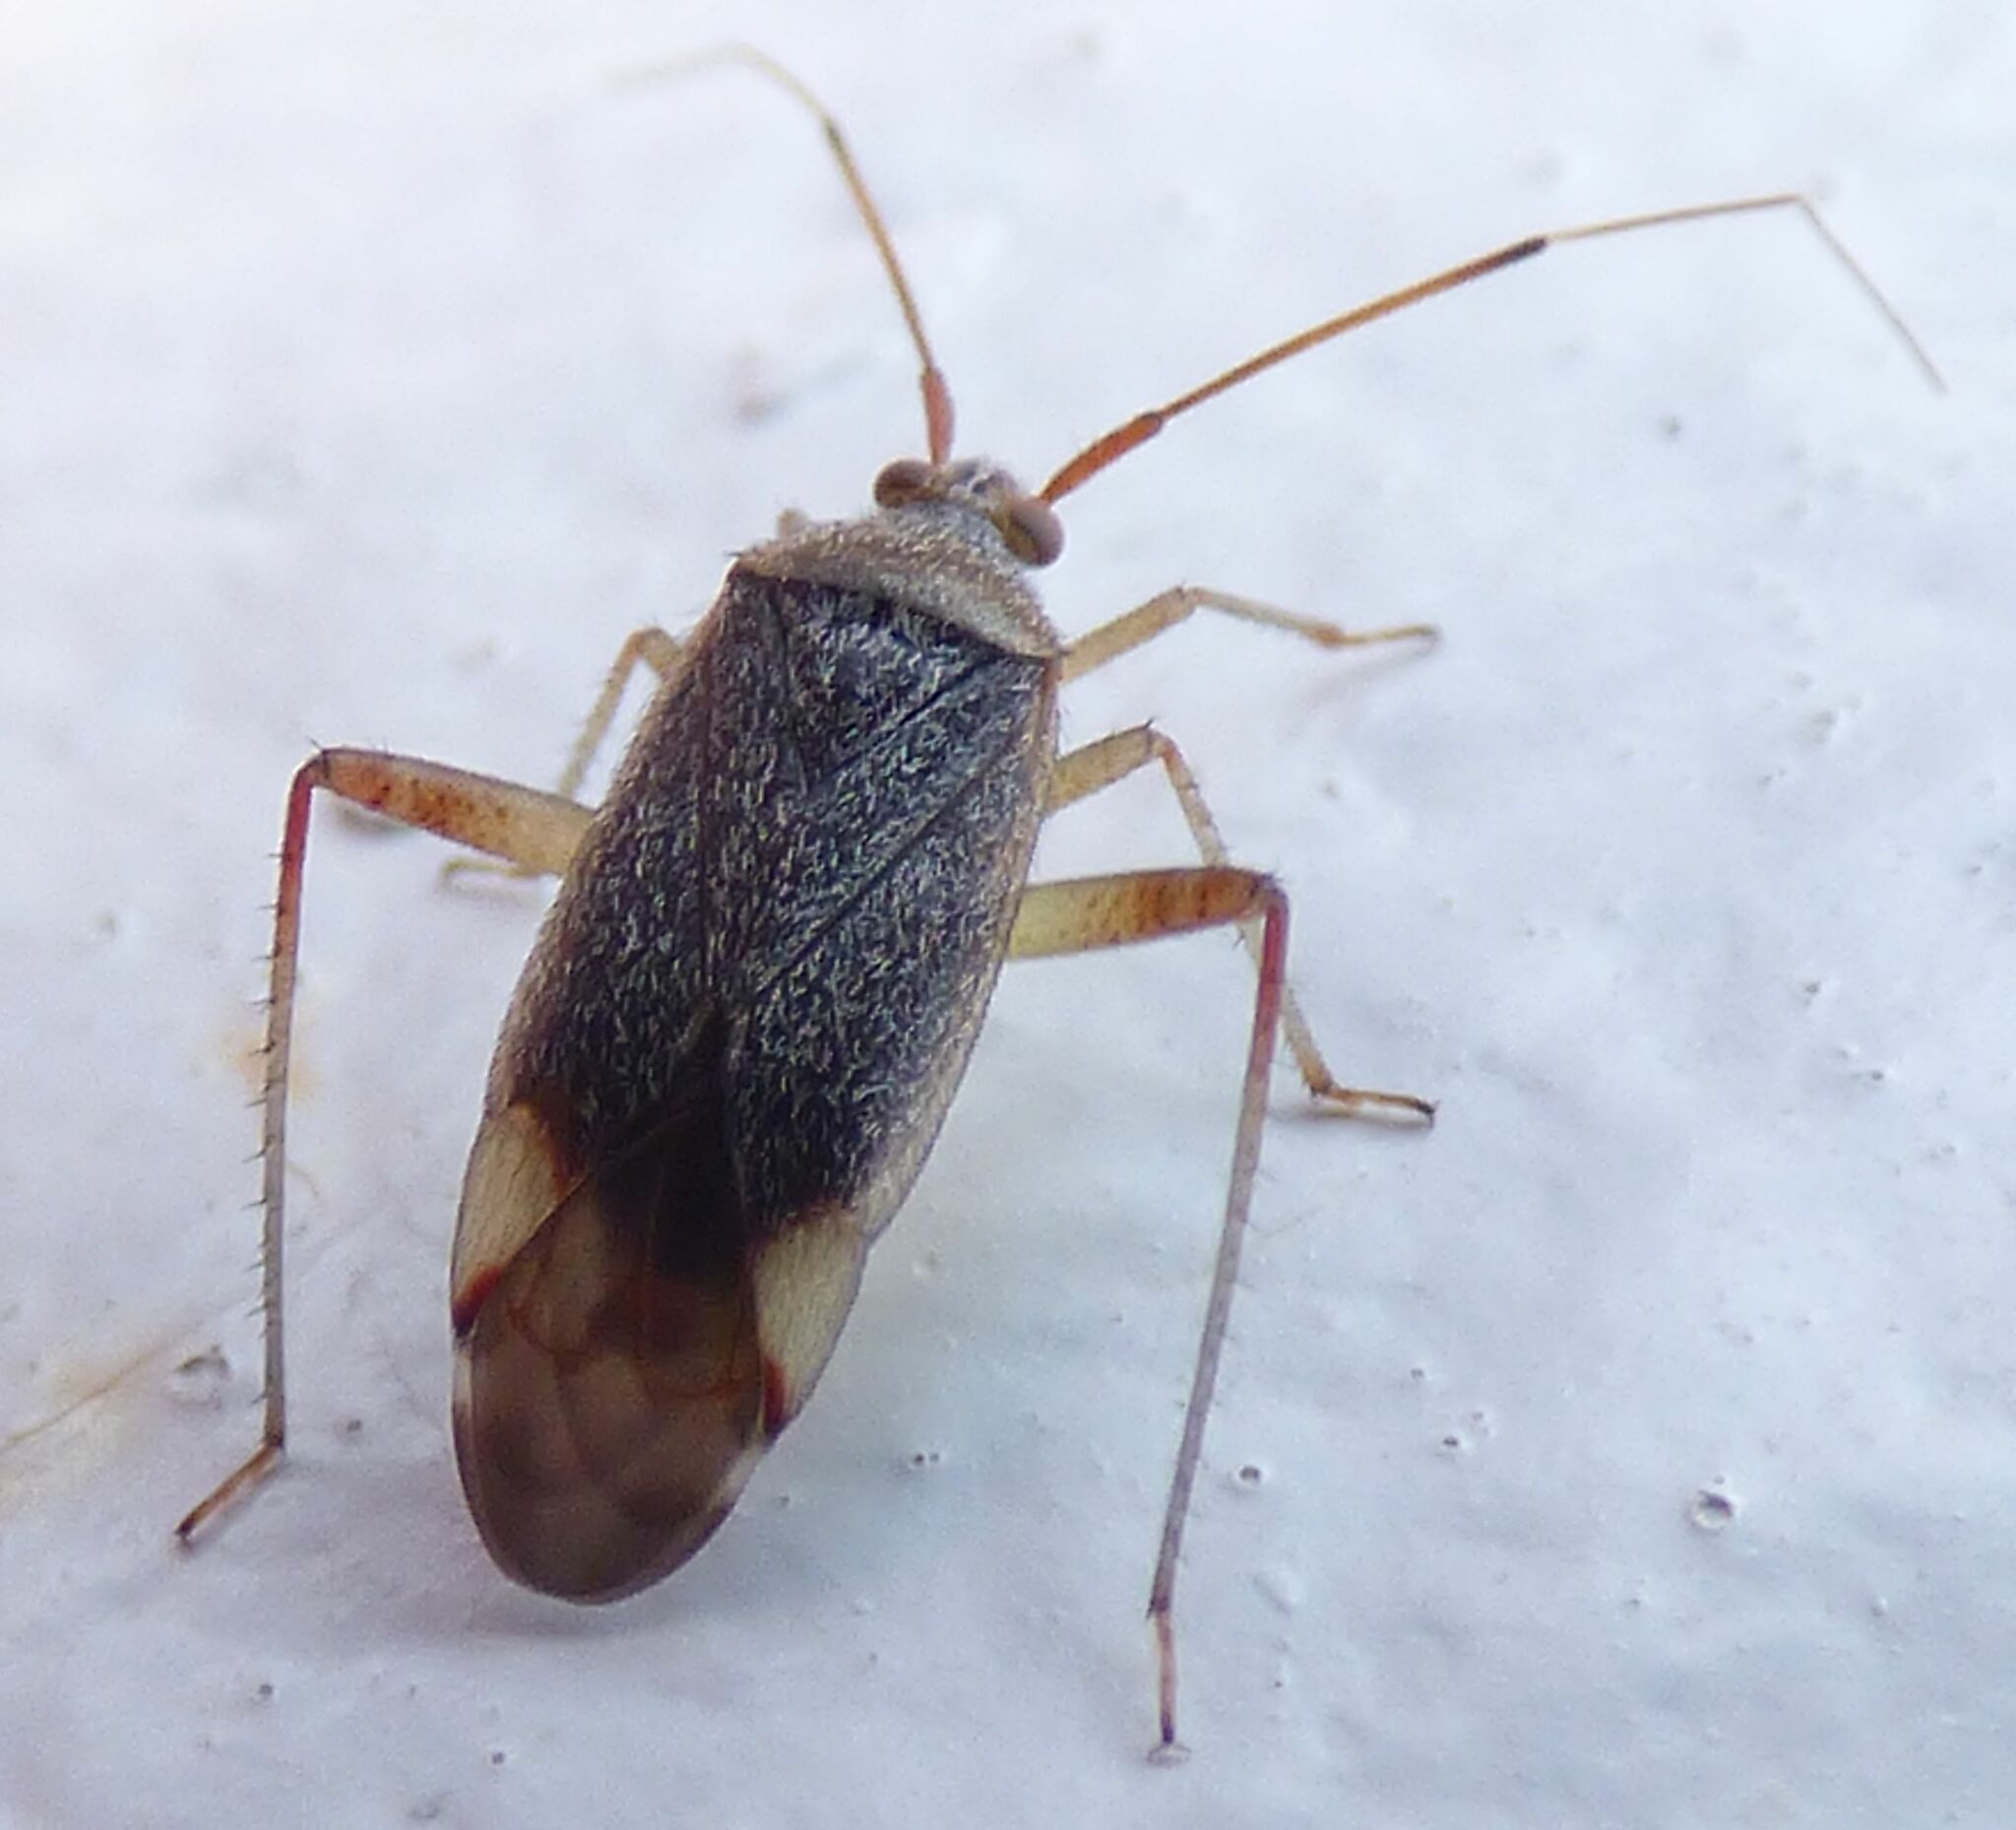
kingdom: Animalia
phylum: Arthropoda
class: Insecta
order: Hemiptera
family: Miridae
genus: Closterotomus
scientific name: Closterotomus annulus
